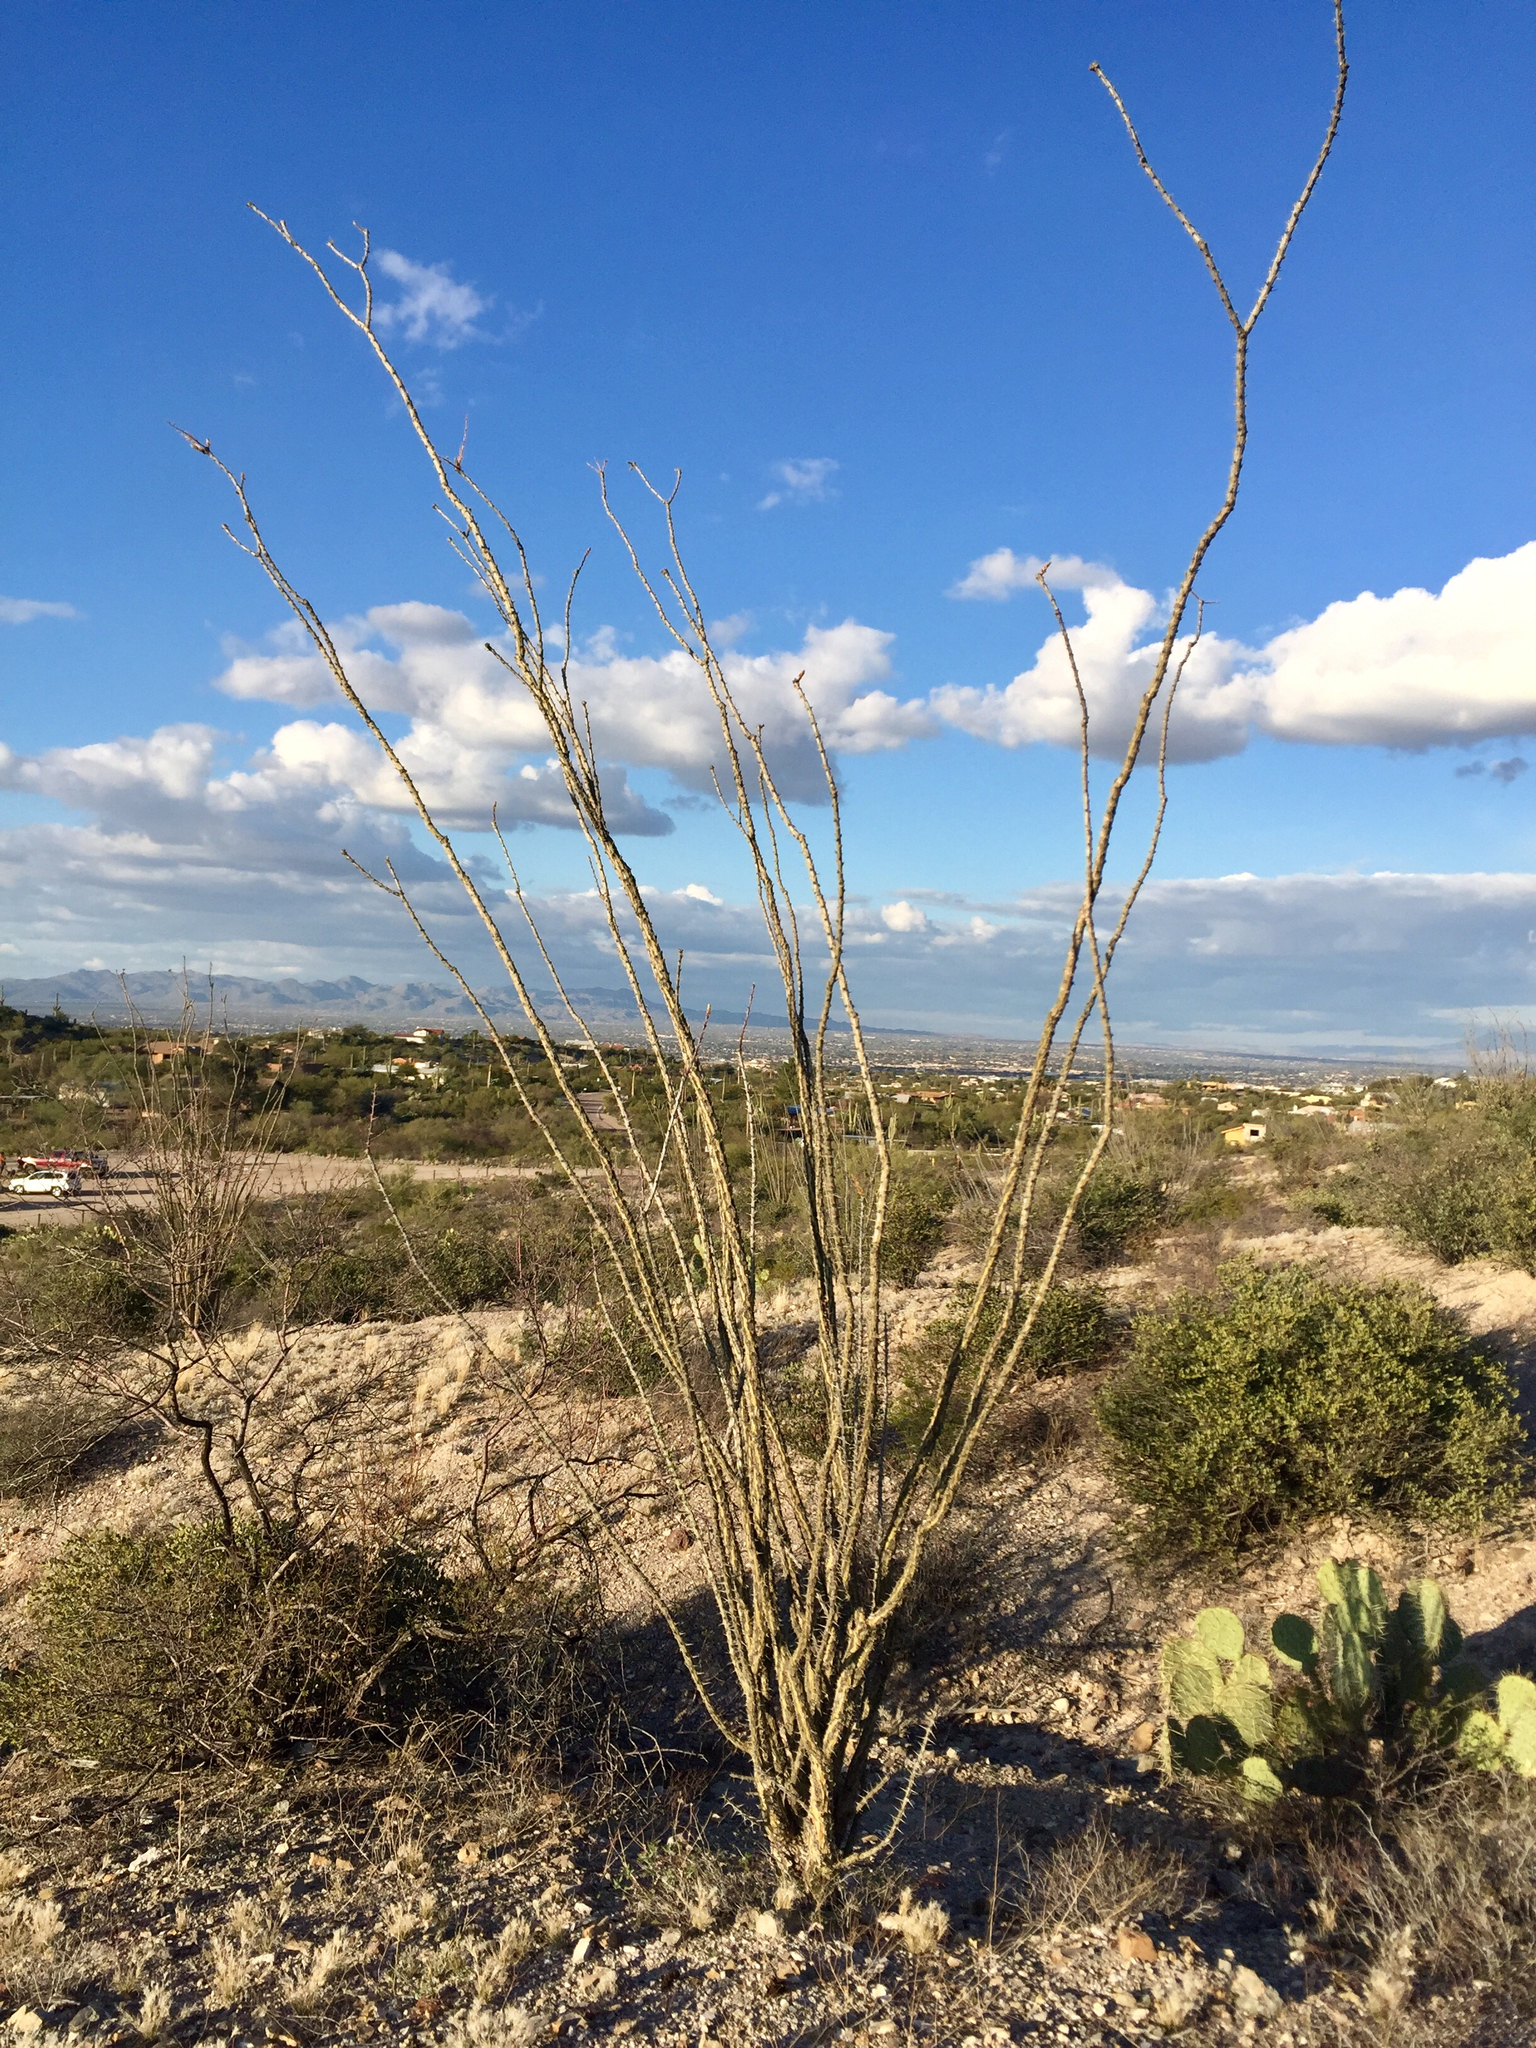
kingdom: Plantae
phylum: Tracheophyta
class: Magnoliopsida
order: Ericales
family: Fouquieriaceae
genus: Fouquieria
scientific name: Fouquieria splendens
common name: Vine-cactus
